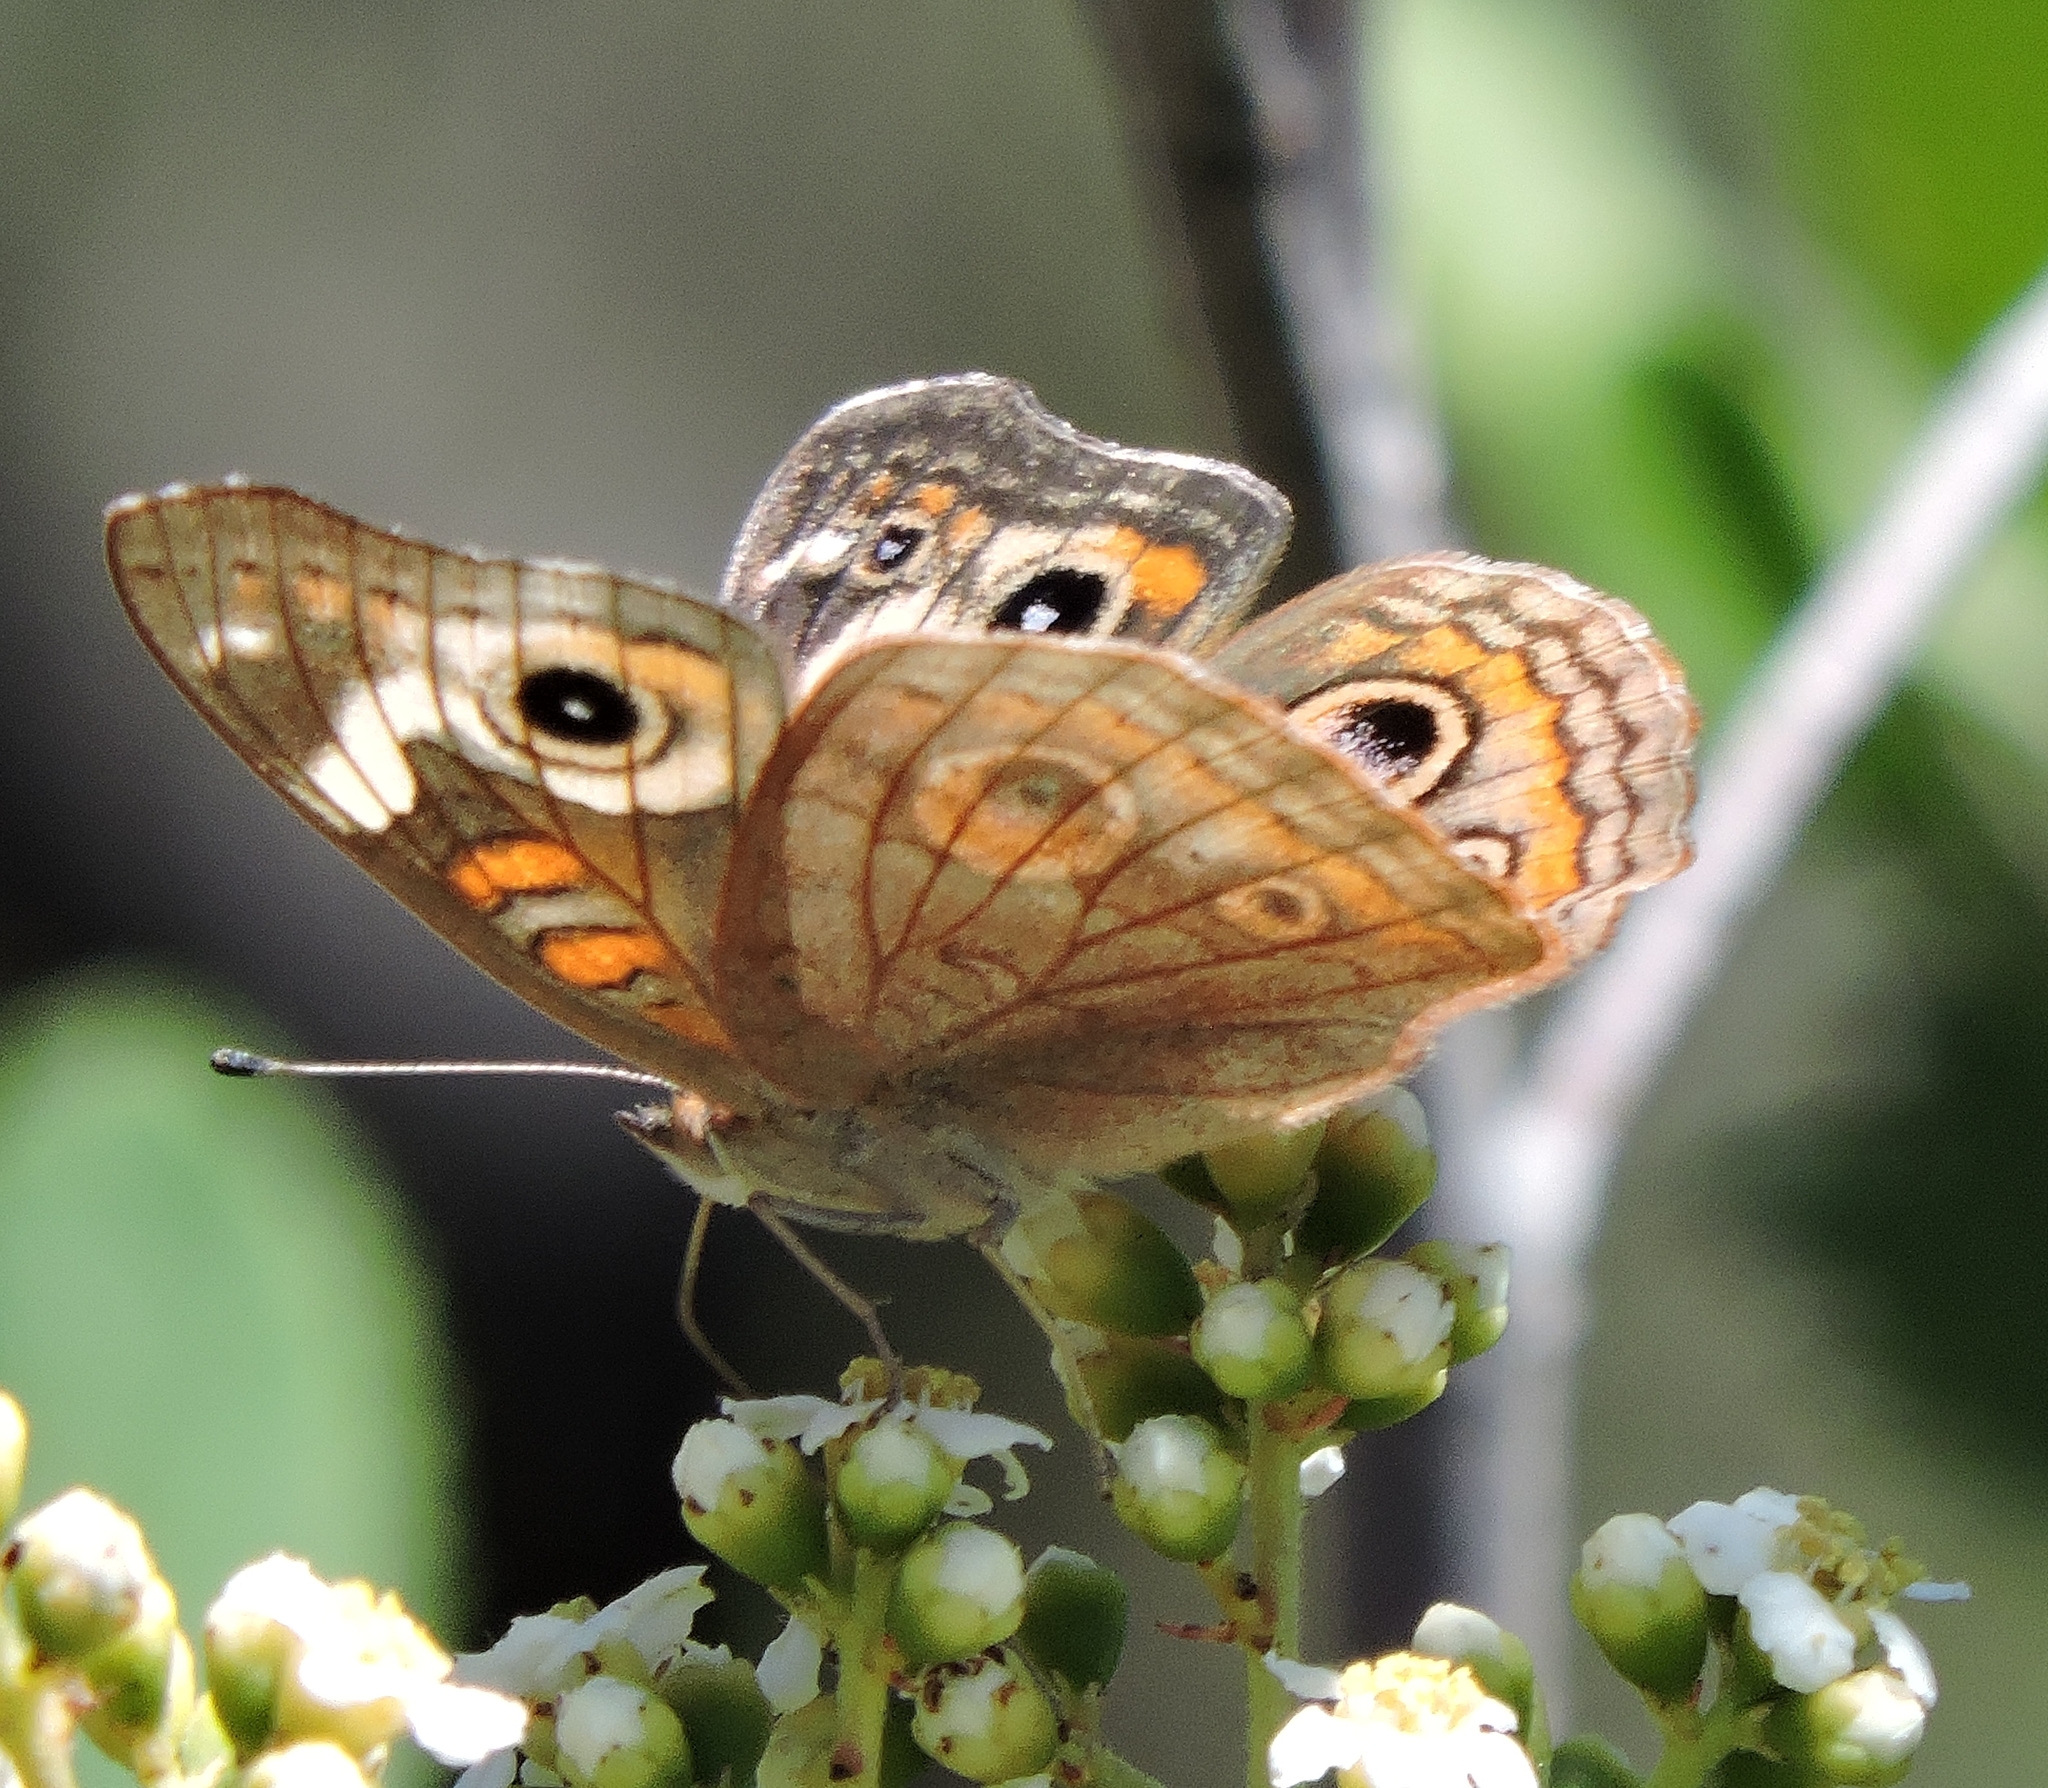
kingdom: Animalia
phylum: Arthropoda
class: Insecta
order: Lepidoptera
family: Nymphalidae
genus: Junonia
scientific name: Junonia grisea
